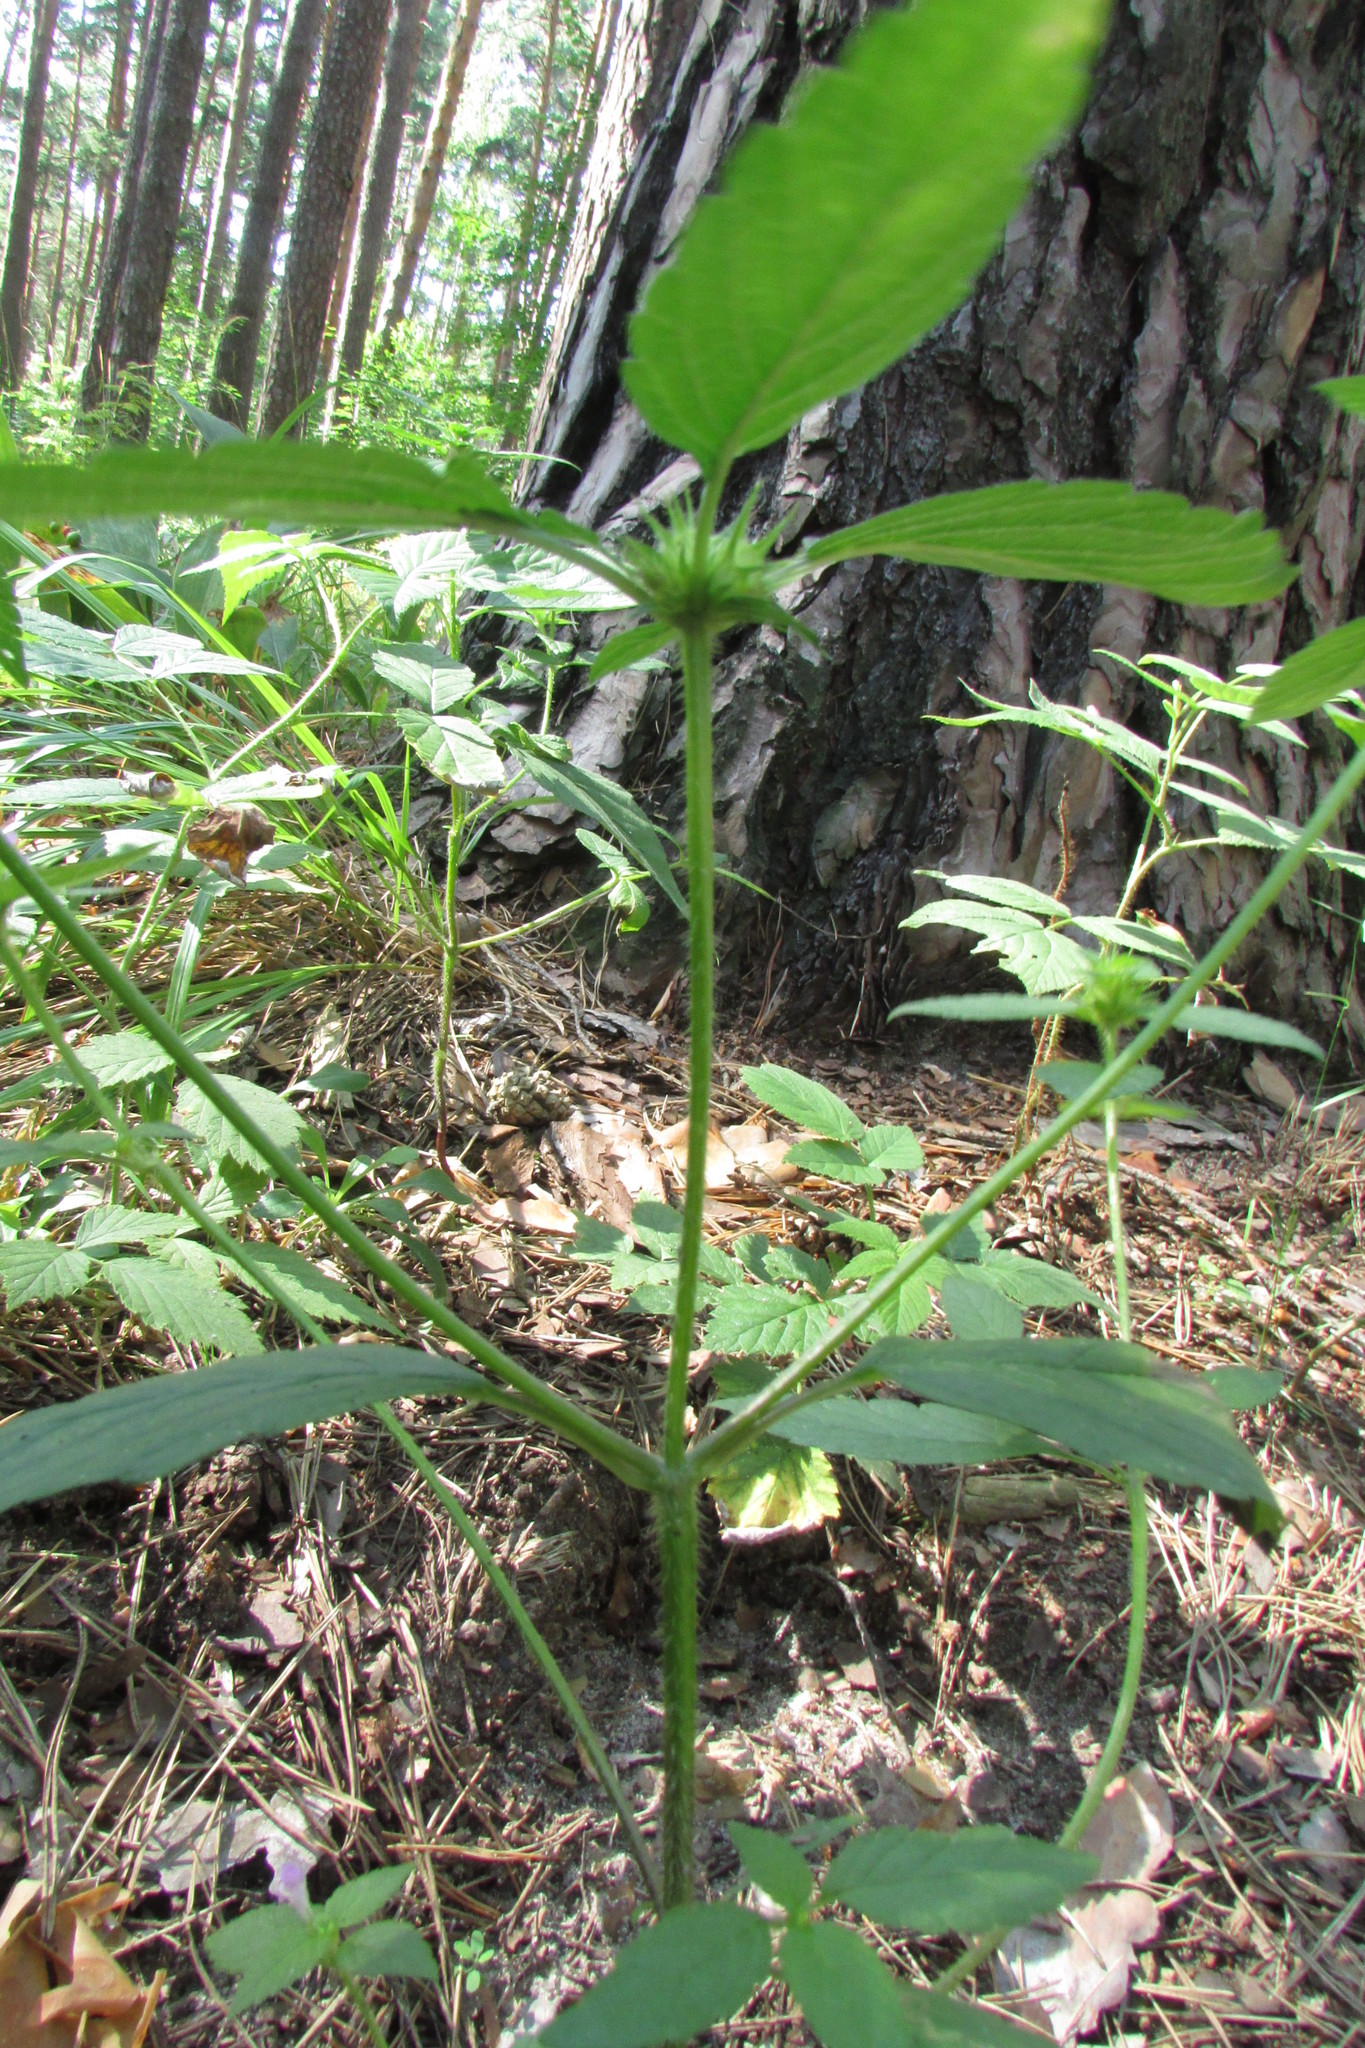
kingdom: Plantae
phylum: Tracheophyta
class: Magnoliopsida
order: Lamiales
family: Lamiaceae
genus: Galeopsis
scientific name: Galeopsis bifida
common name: Bifid hemp-nettle
